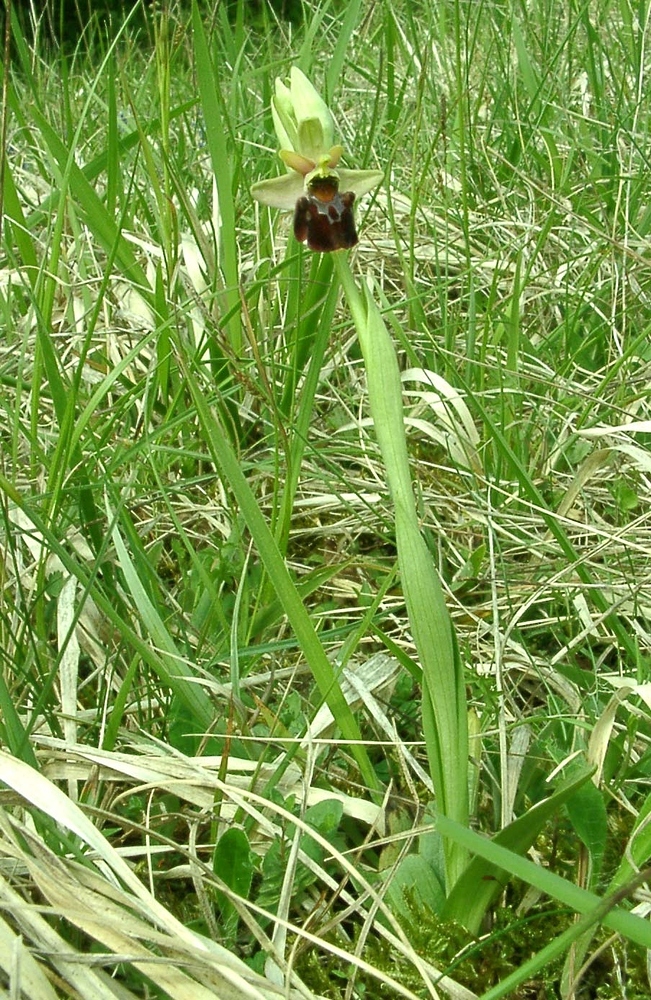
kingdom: Plantae
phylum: Tracheophyta
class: Liliopsida
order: Asparagales
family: Orchidaceae
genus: Ophrys
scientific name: Ophrys arachnitiformis
